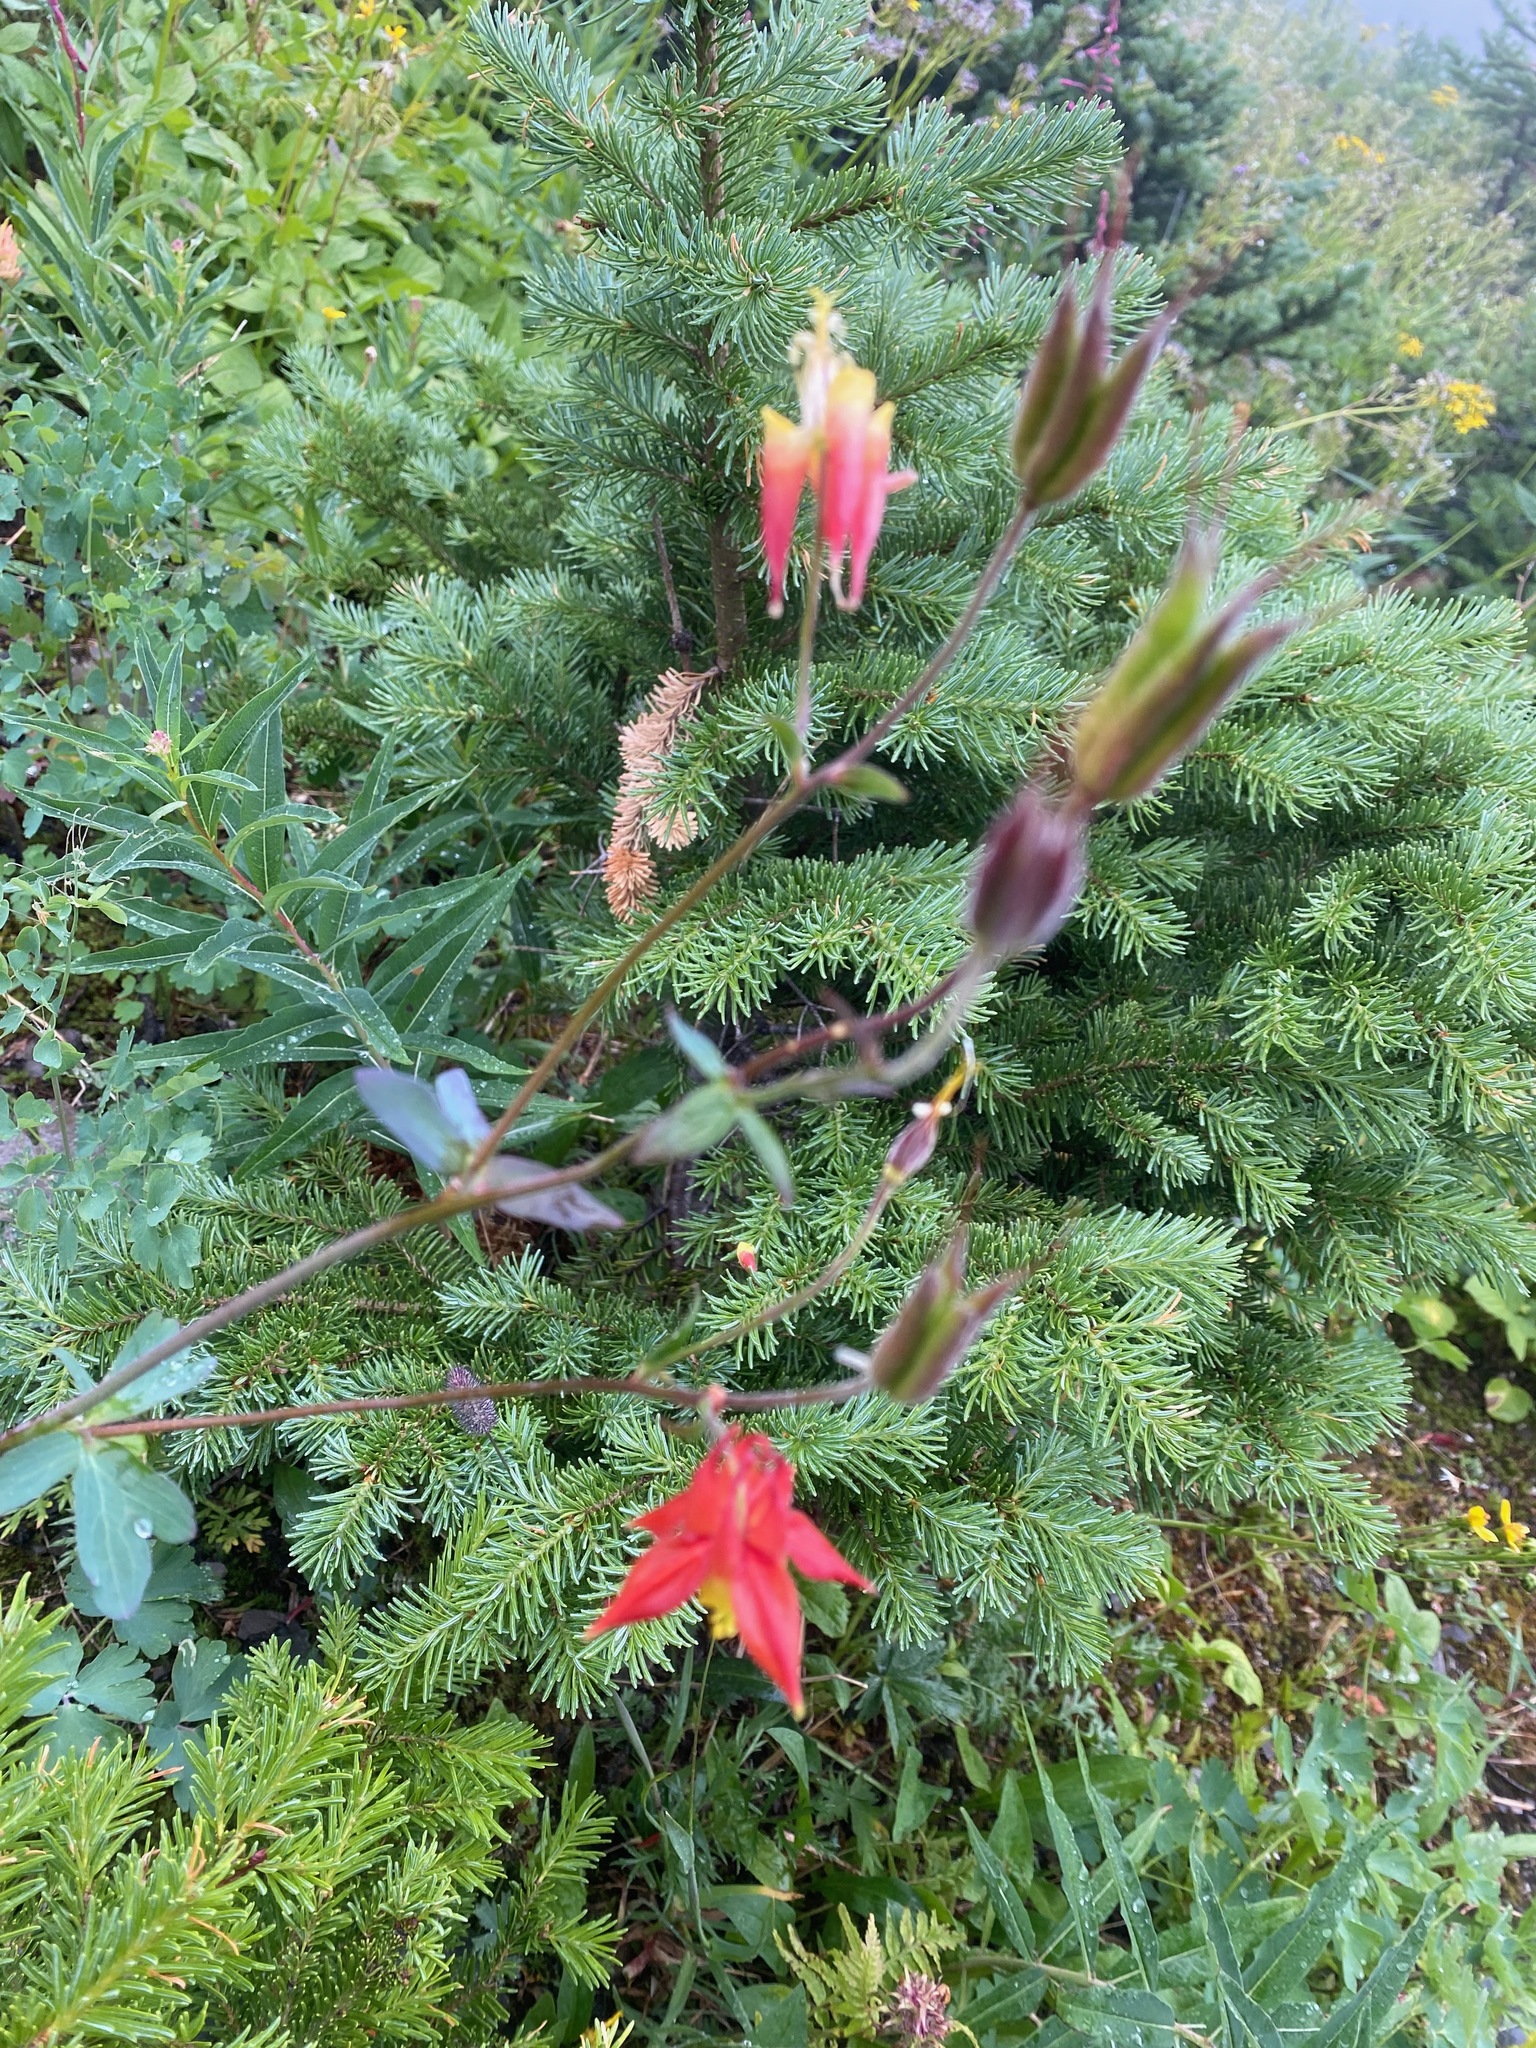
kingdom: Plantae
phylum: Tracheophyta
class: Magnoliopsida
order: Ranunculales
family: Ranunculaceae
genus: Aquilegia
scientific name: Aquilegia formosa
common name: Sitka columbine
